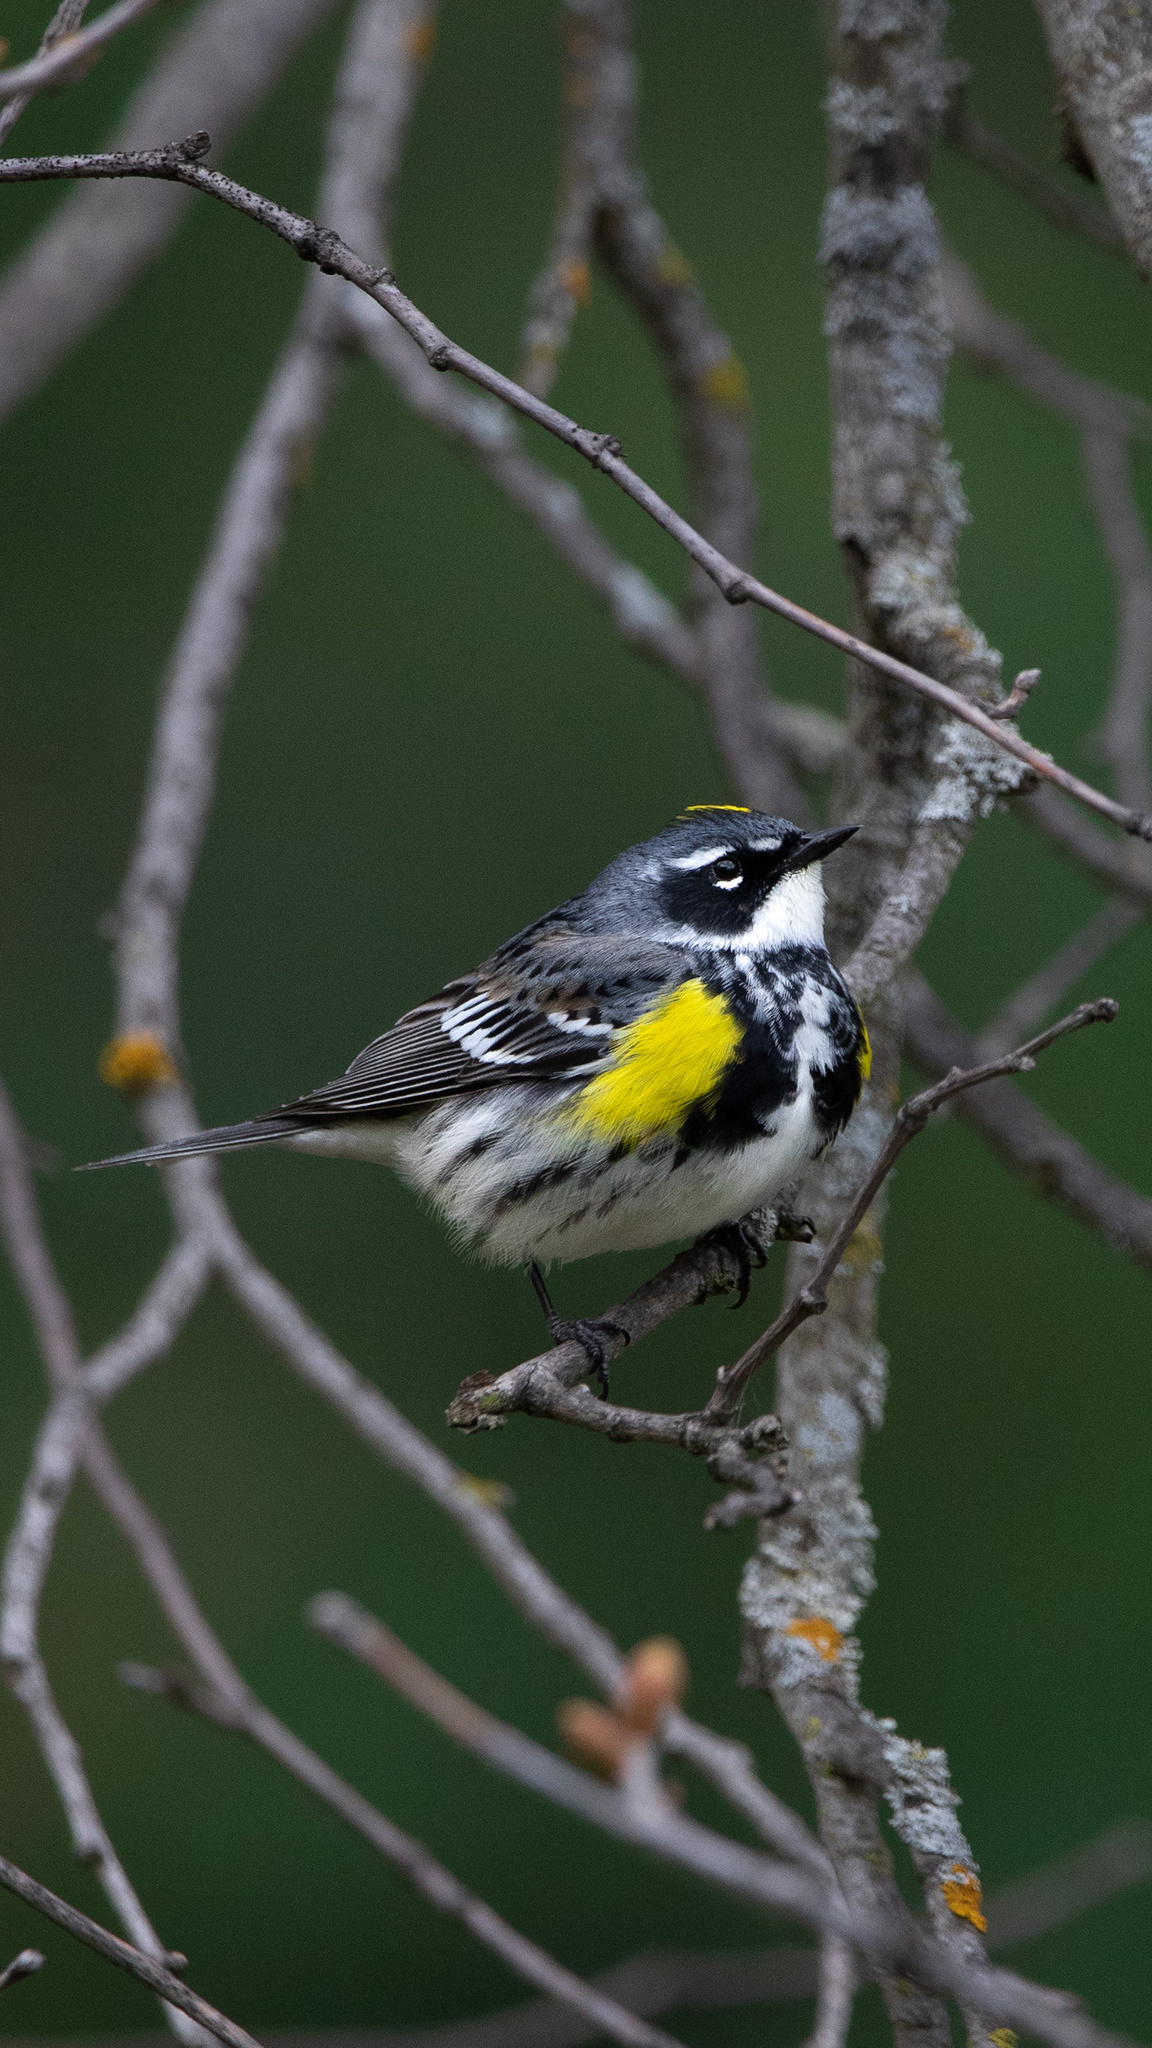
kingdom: Animalia
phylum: Chordata
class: Aves
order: Passeriformes
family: Parulidae
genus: Setophaga
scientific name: Setophaga coronata
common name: Myrtle warbler
